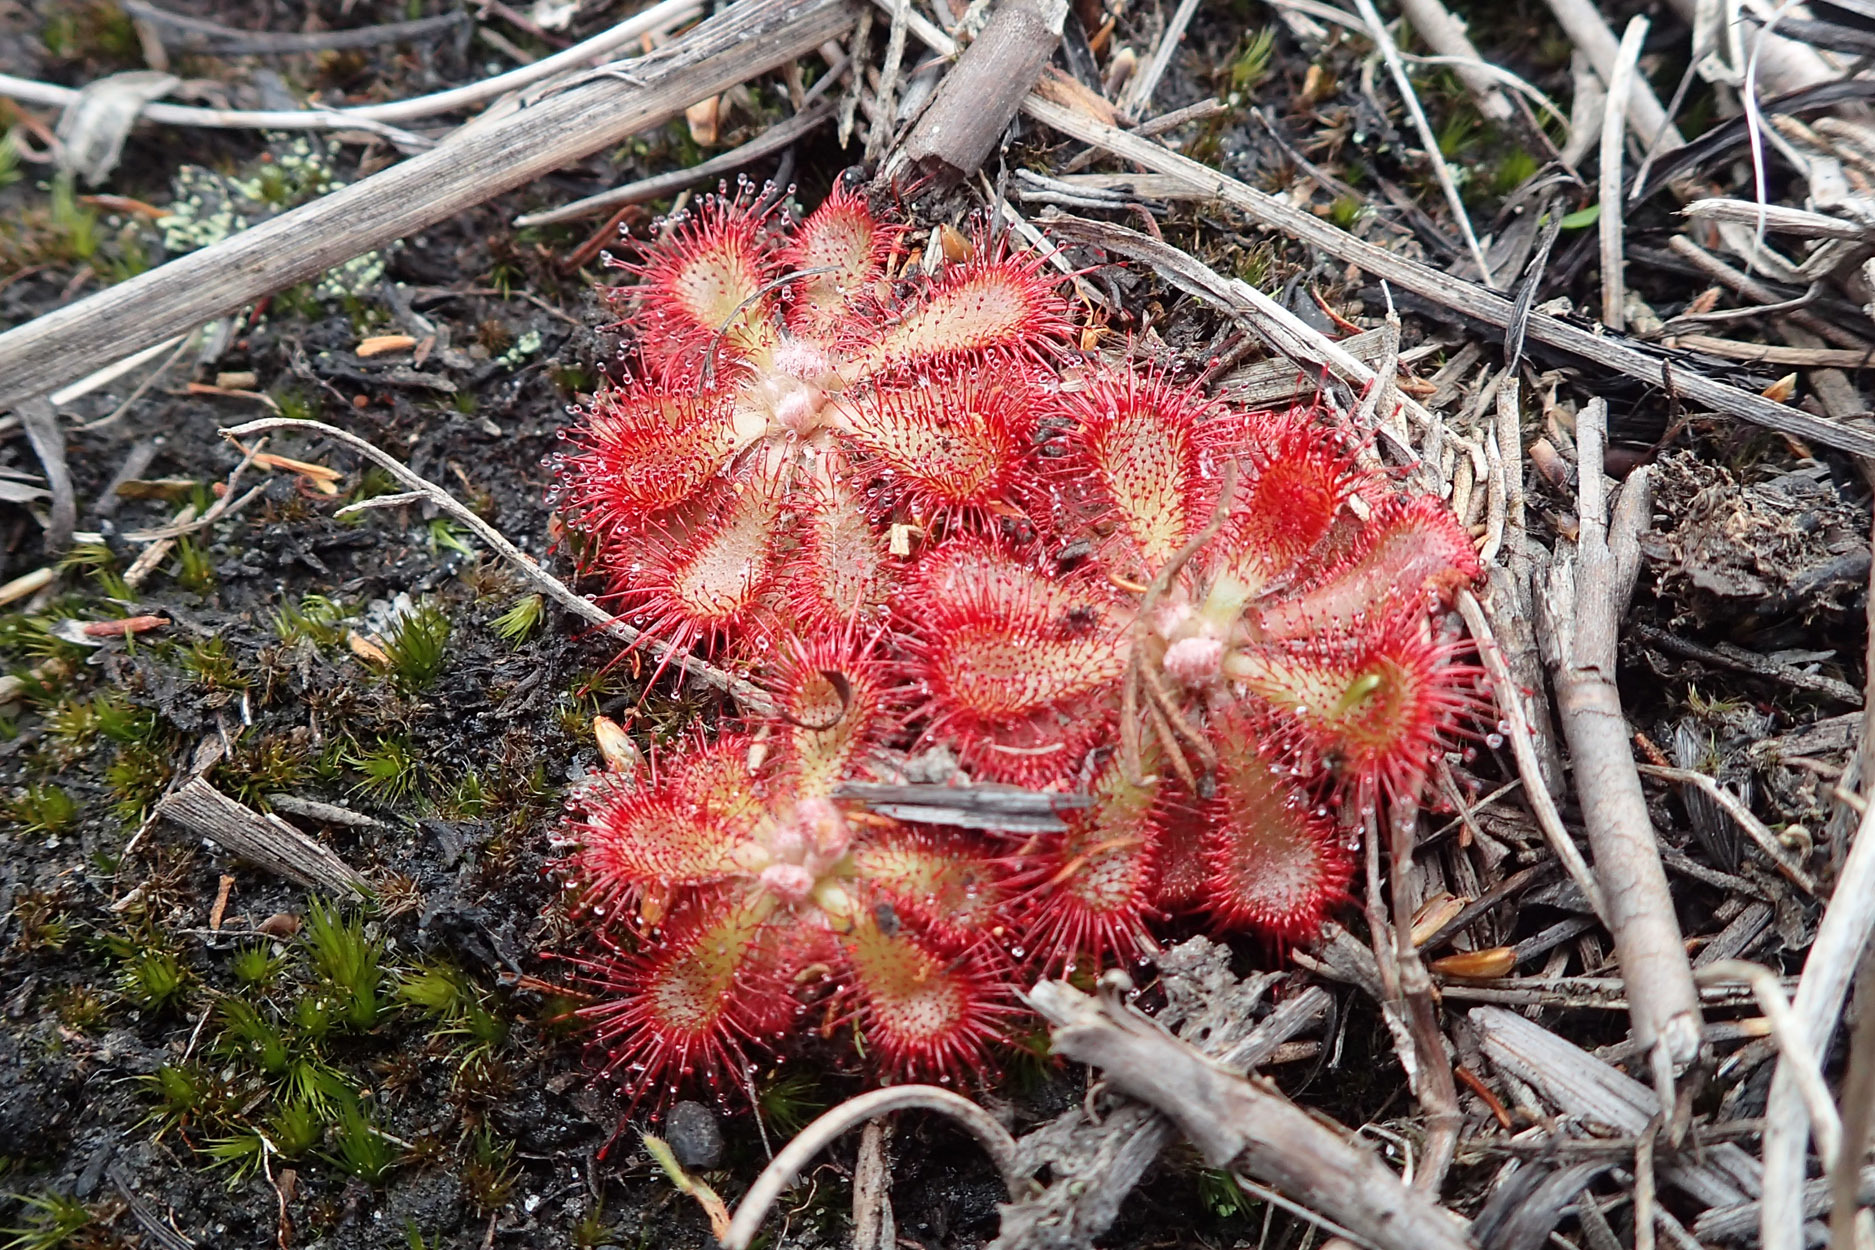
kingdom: Plantae
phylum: Tracheophyta
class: Magnoliopsida
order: Caryophyllales
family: Droseraceae
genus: Drosera
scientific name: Drosera aliciae
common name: Alice sundew
